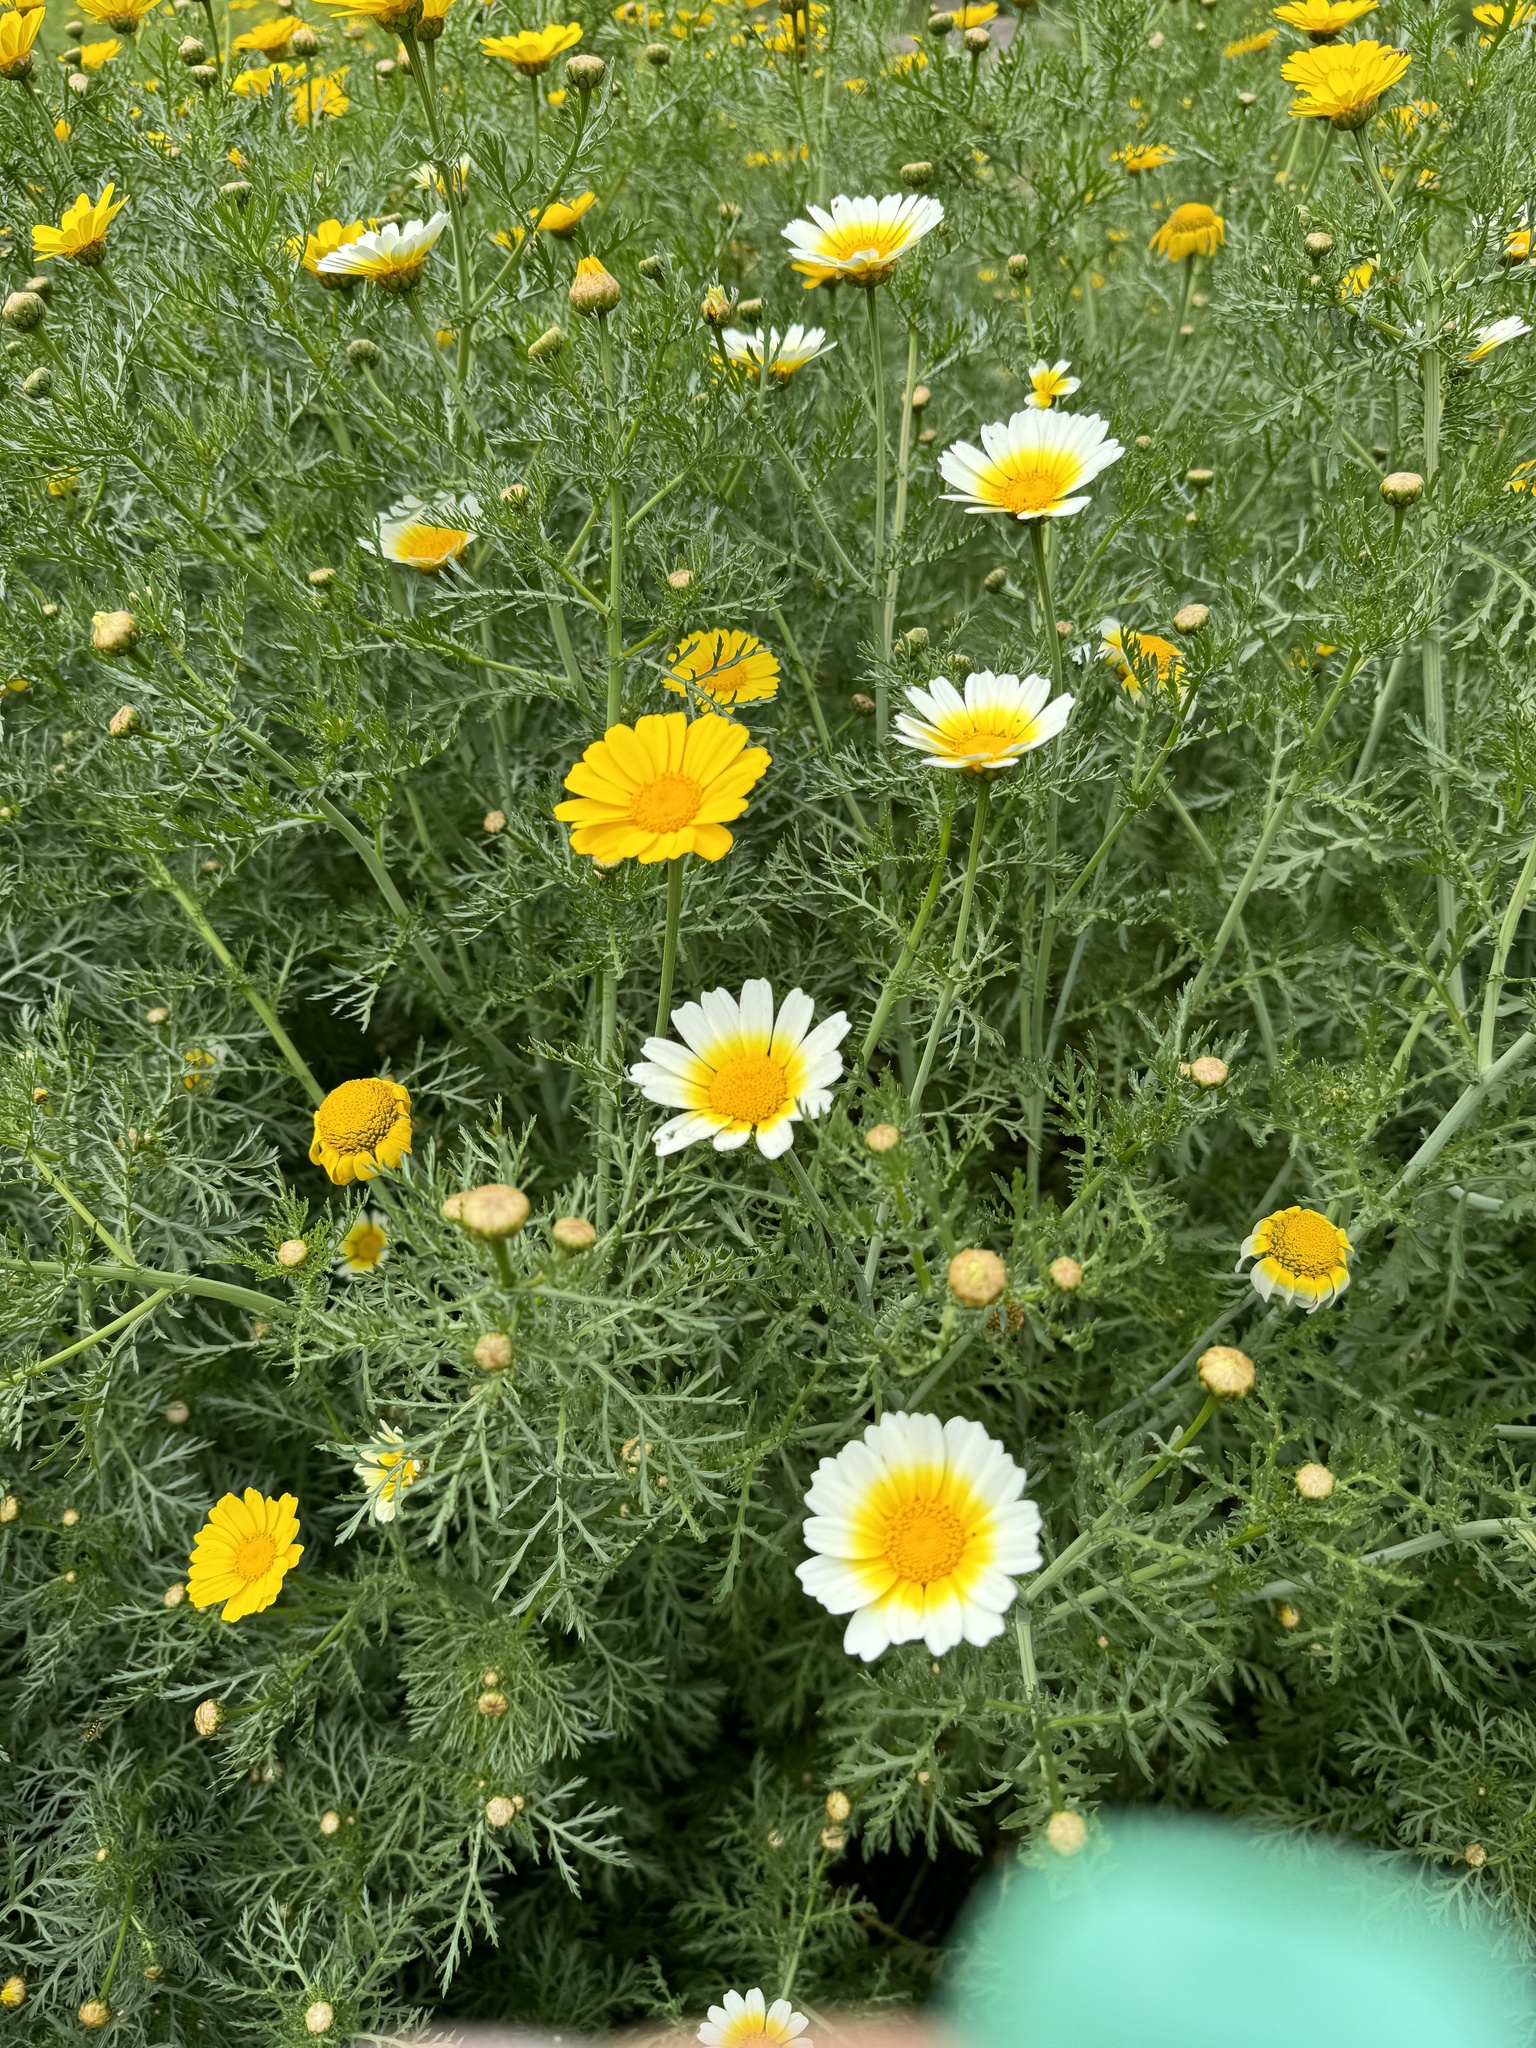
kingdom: Plantae
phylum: Tracheophyta
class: Magnoliopsida
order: Asterales
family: Asteraceae
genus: Glebionis
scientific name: Glebionis coronaria
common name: Crowndaisy
